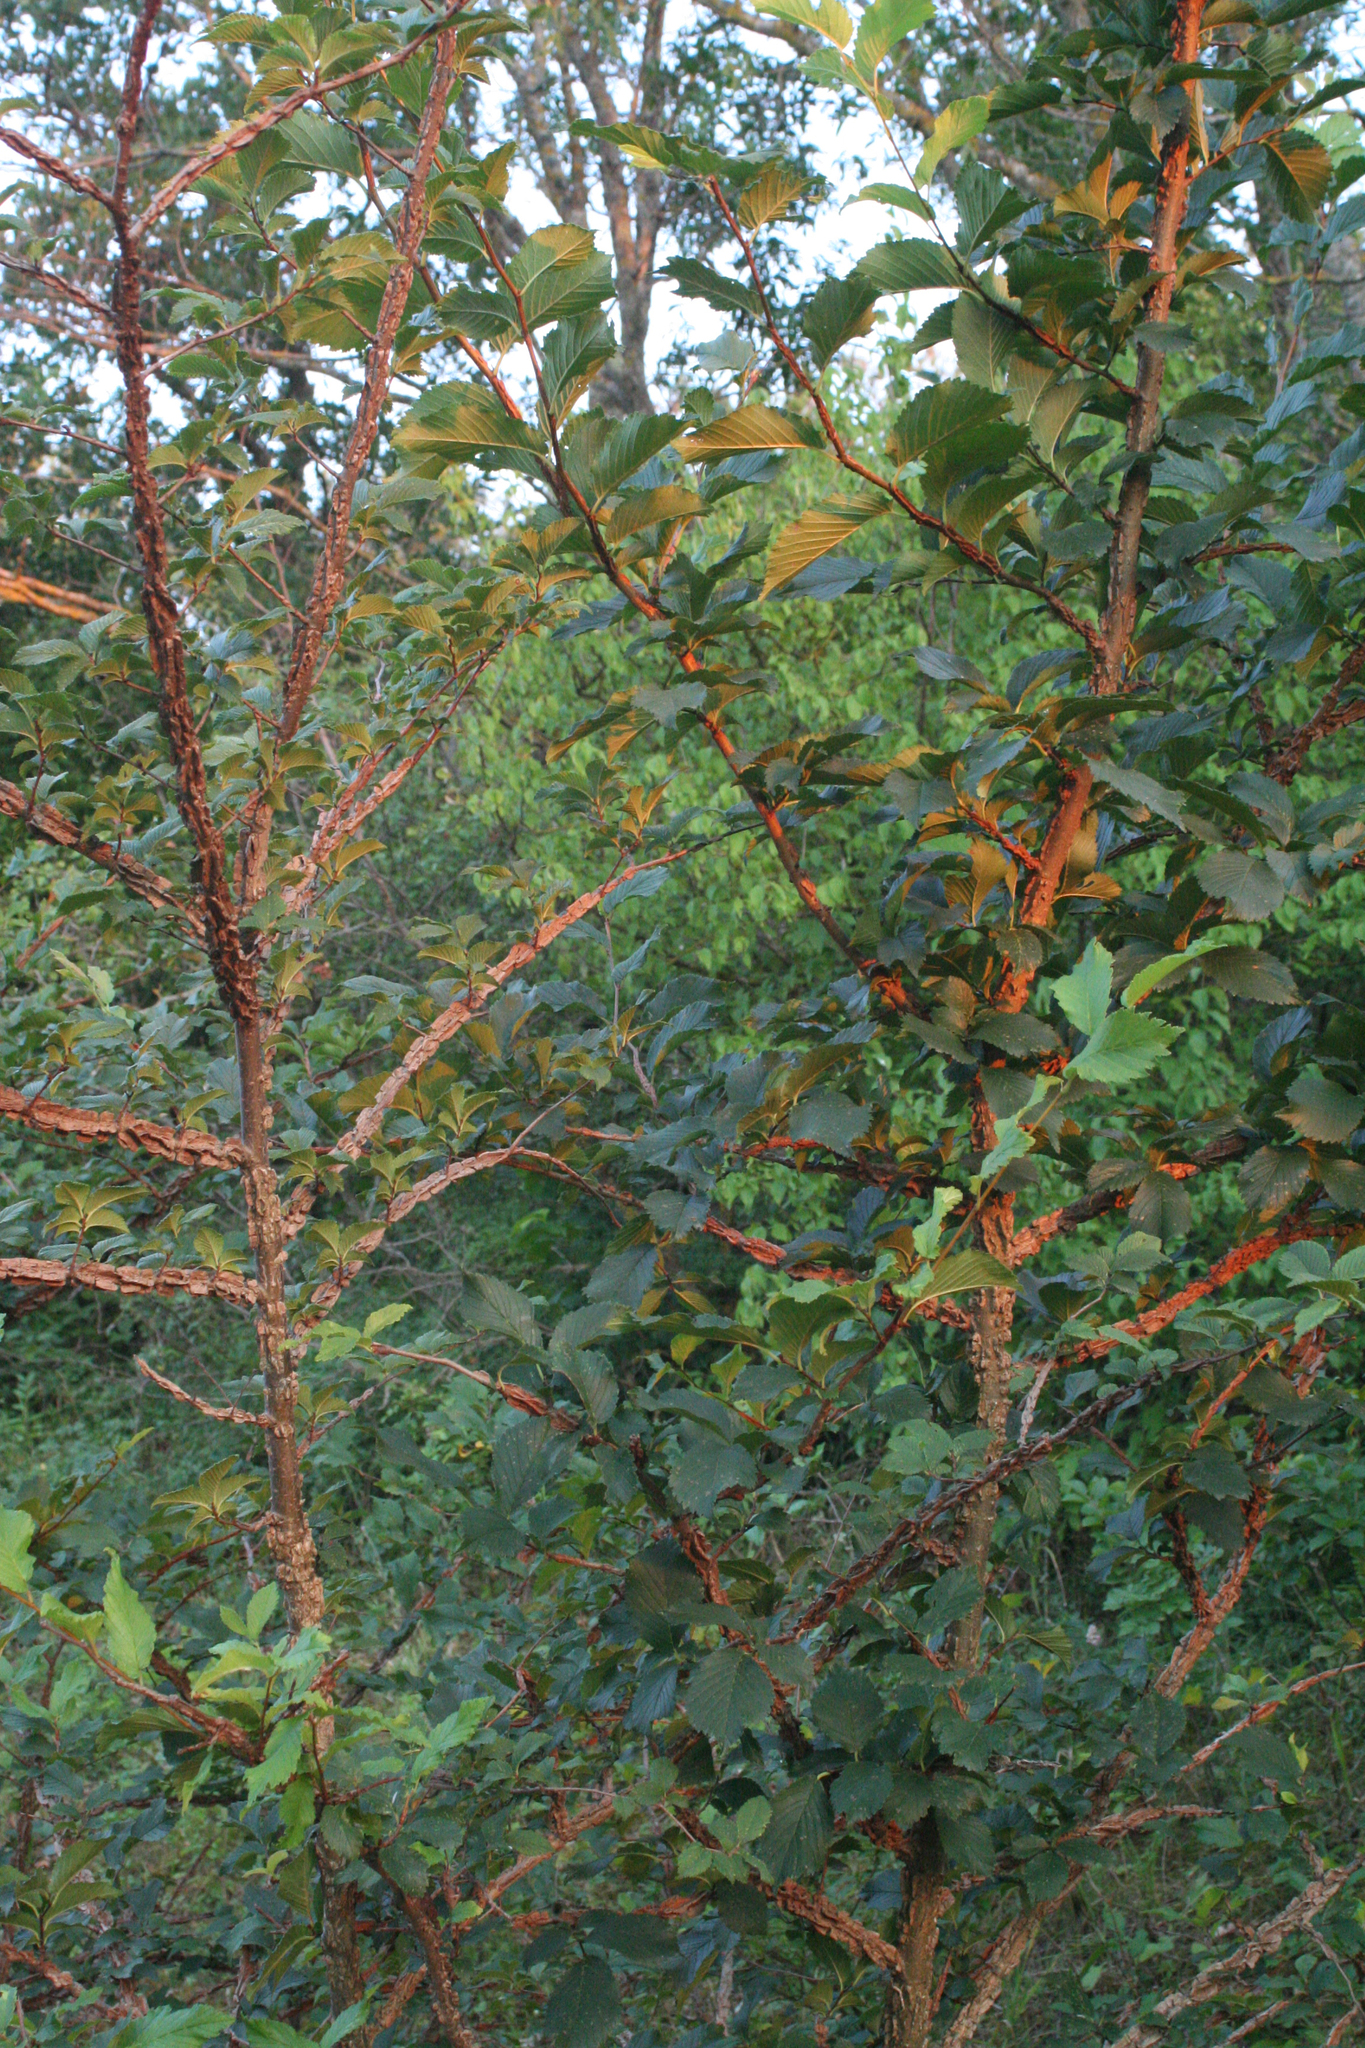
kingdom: Plantae
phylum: Tracheophyta
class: Magnoliopsida
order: Rosales
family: Ulmaceae
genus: Ulmus
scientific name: Ulmus minor
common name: Small-leaved elm
